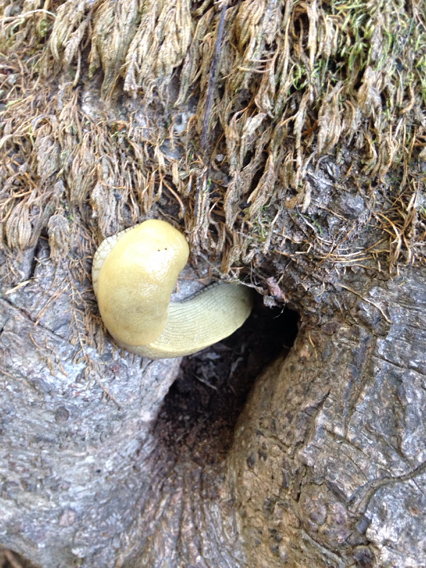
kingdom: Animalia
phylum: Mollusca
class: Gastropoda
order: Stylommatophora
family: Ariolimacidae
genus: Ariolimax
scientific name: Ariolimax buttoni
